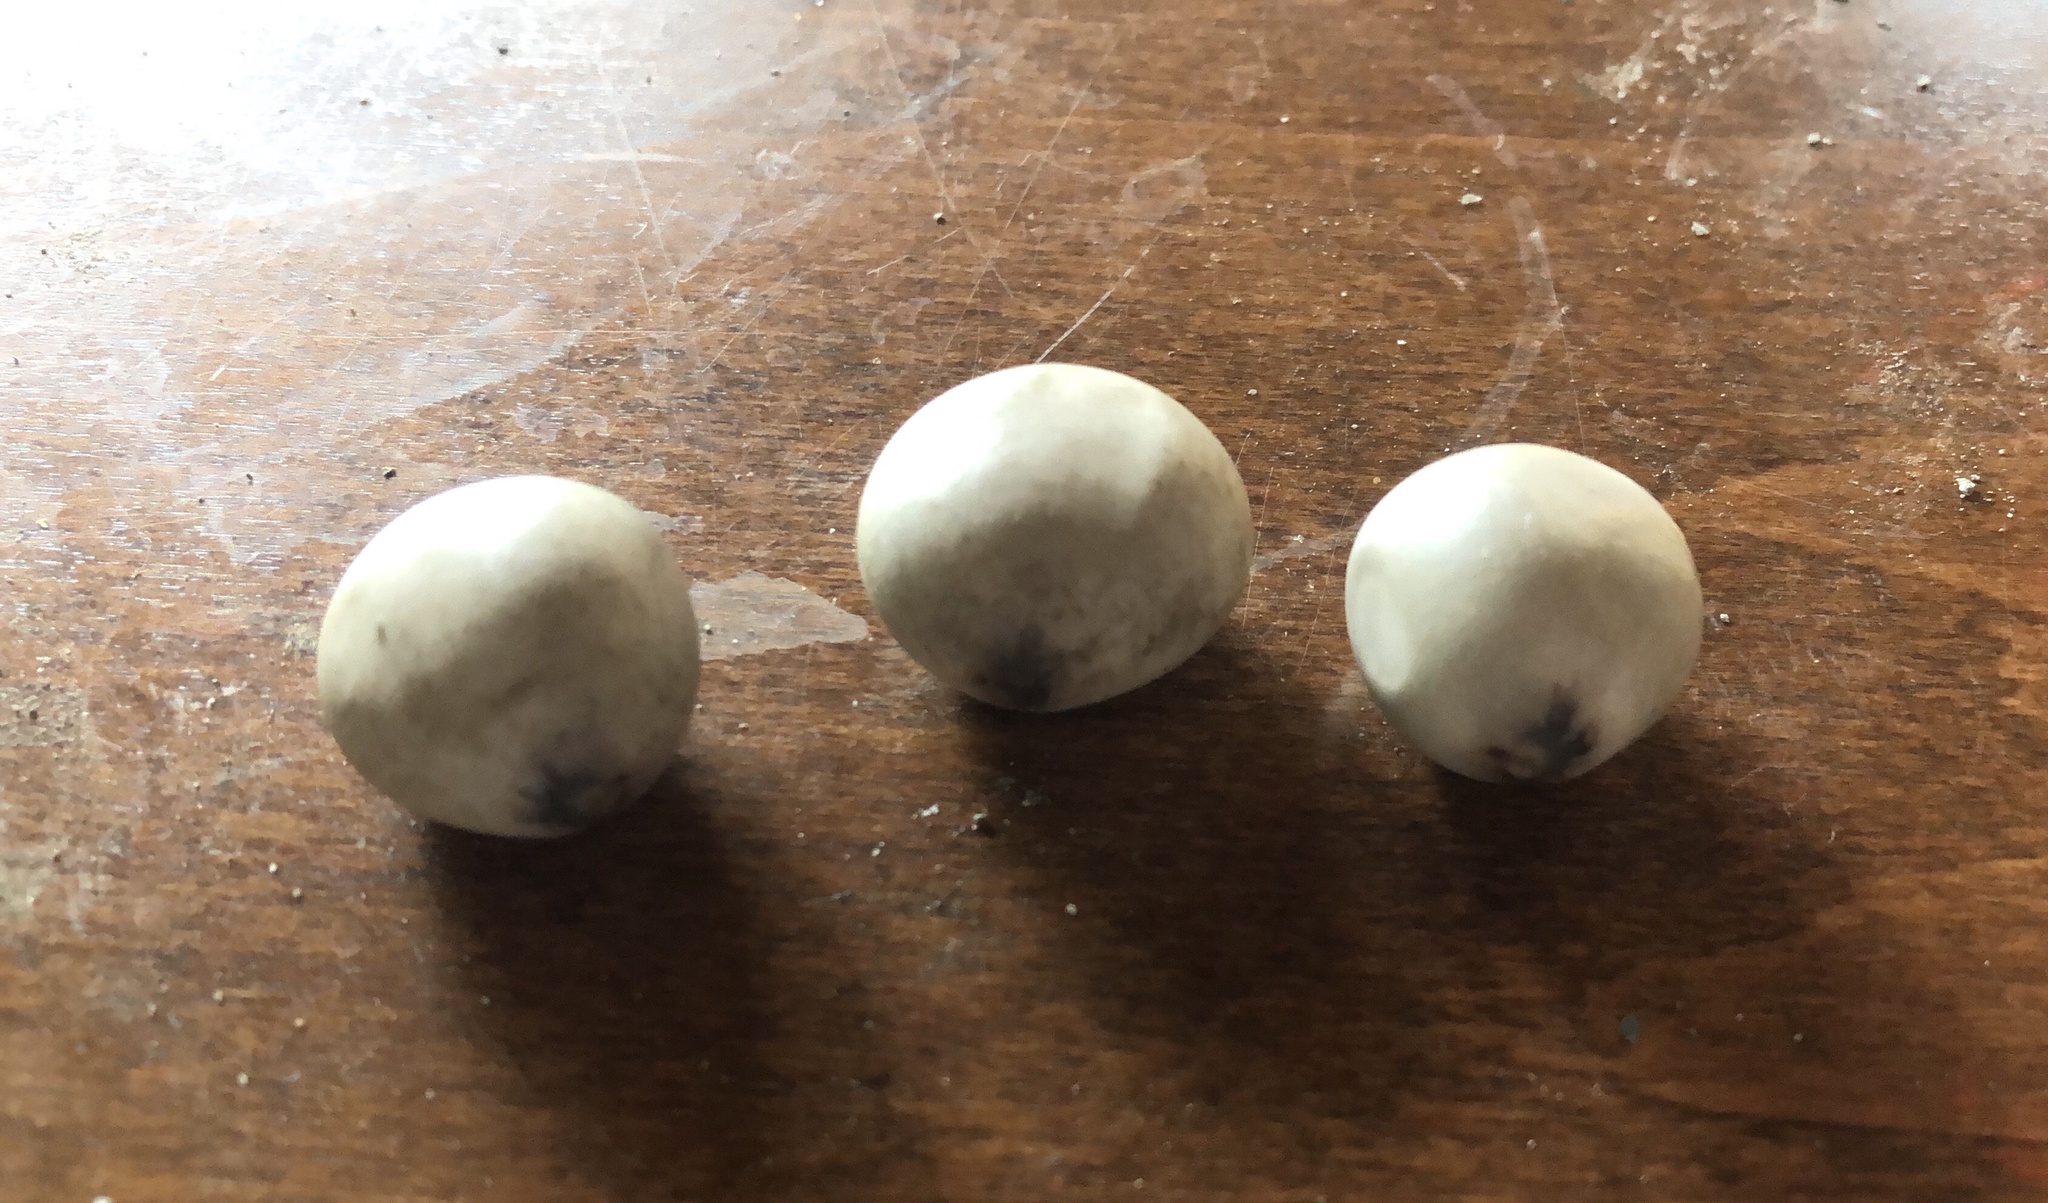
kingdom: Plantae
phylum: Tracheophyta
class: Magnoliopsida
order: Fabales
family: Fabaceae
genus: Guilandina
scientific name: Guilandina bonduc
